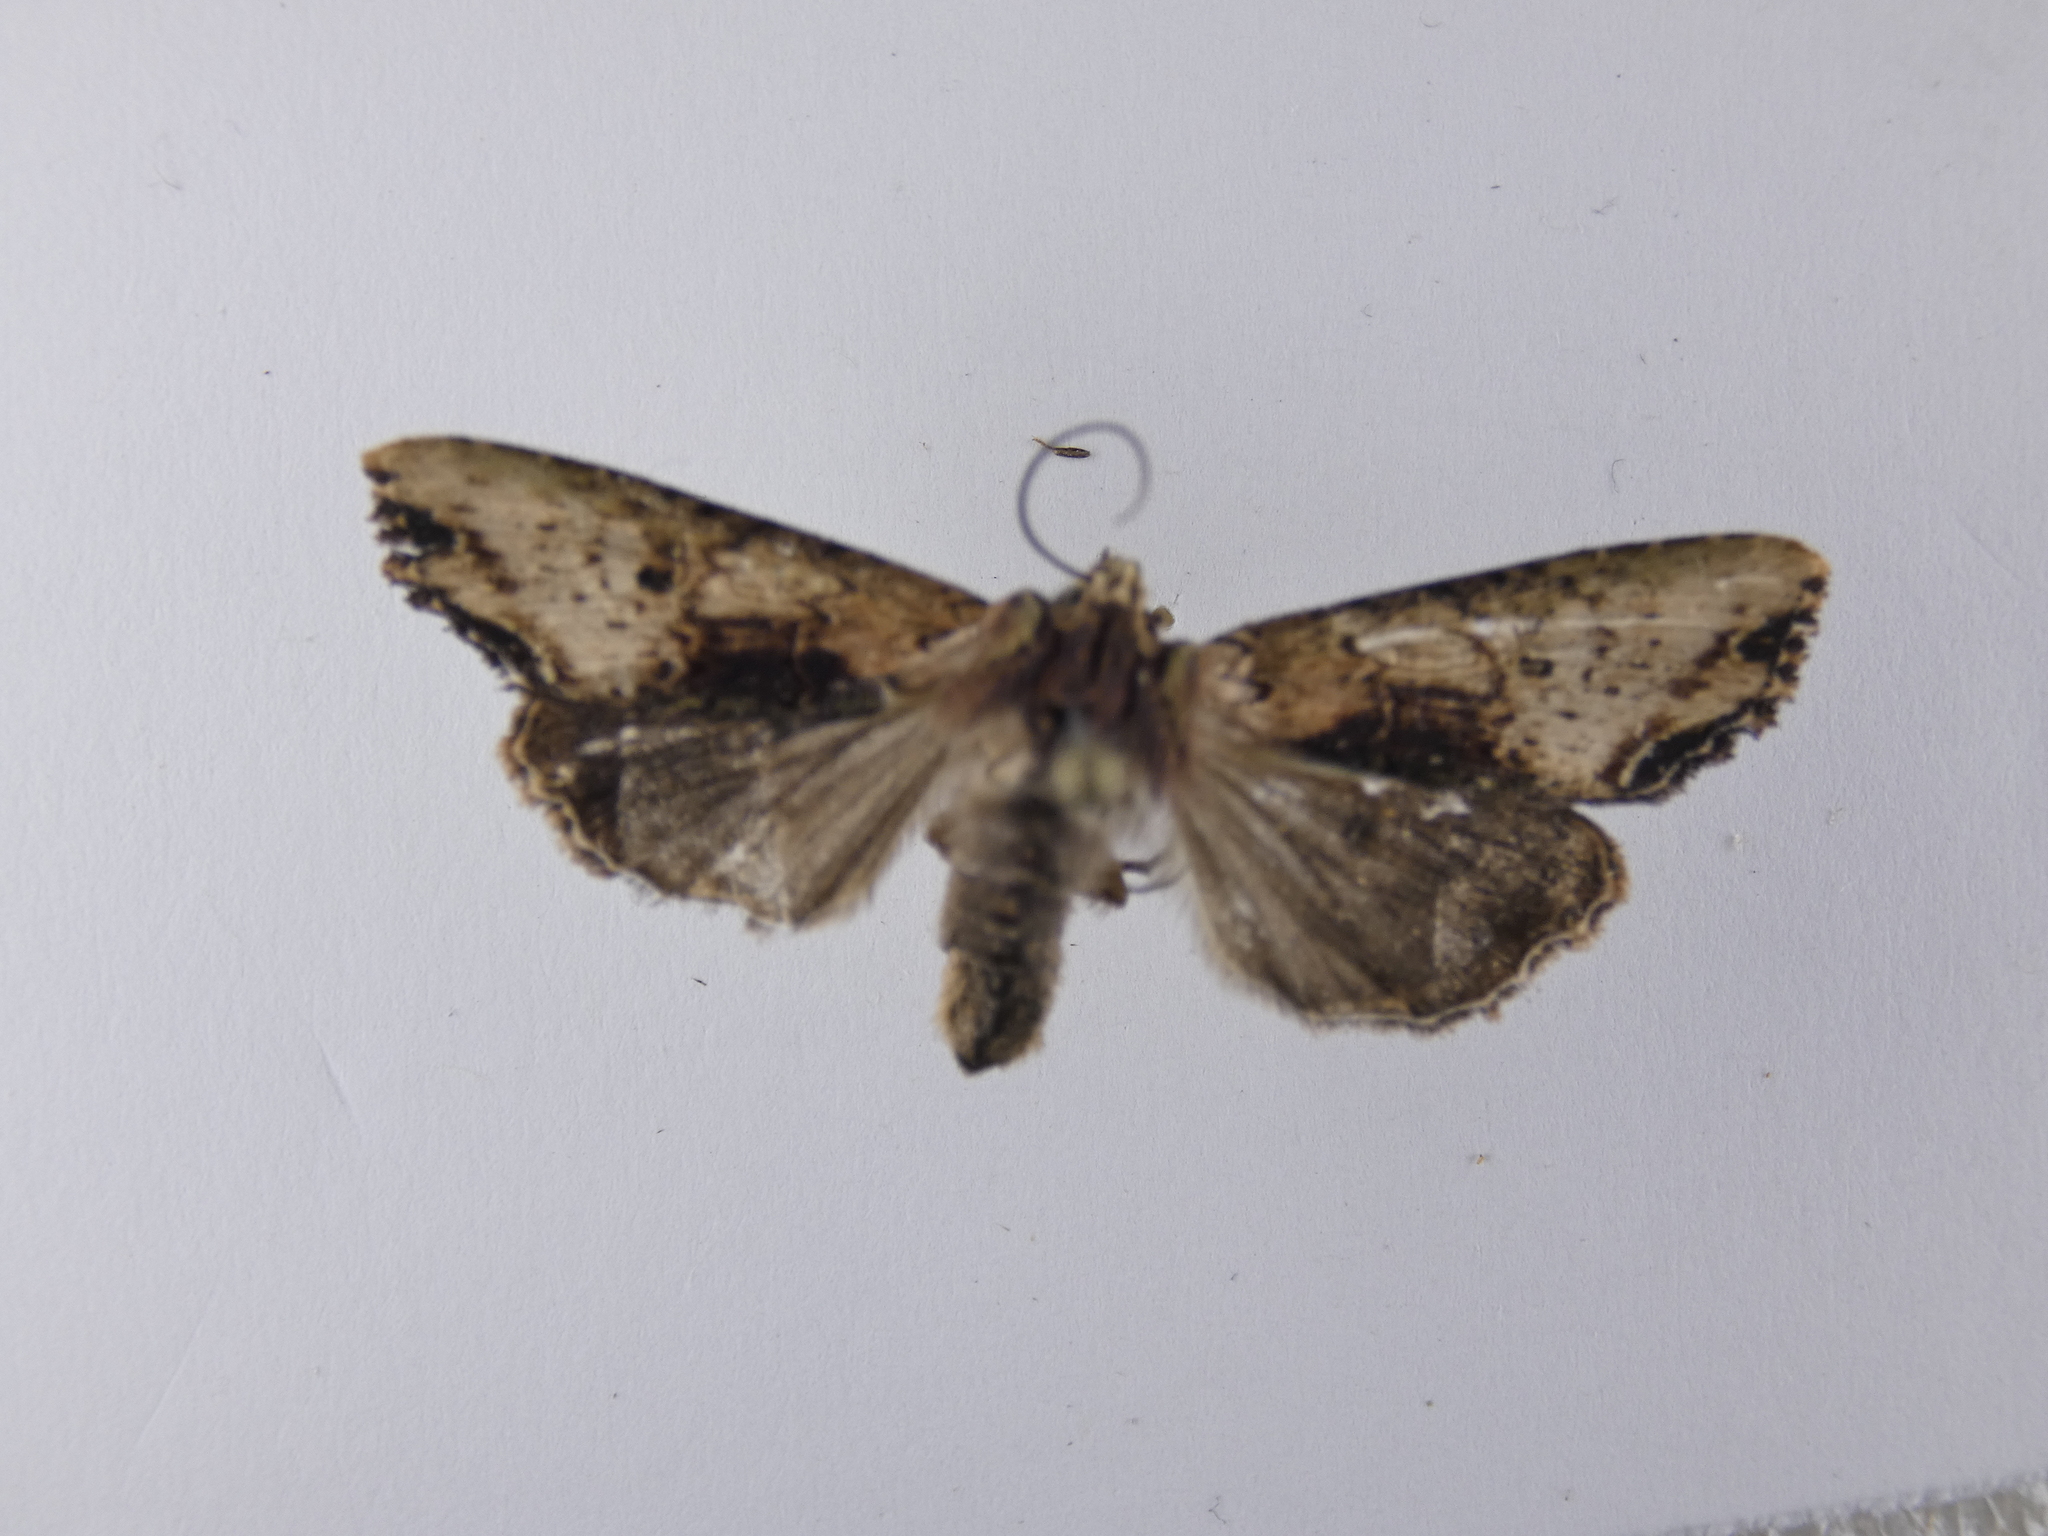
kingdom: Animalia
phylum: Arthropoda
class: Insecta
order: Lepidoptera
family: Noctuidae
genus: Meterana
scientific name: Meterana coeleno
